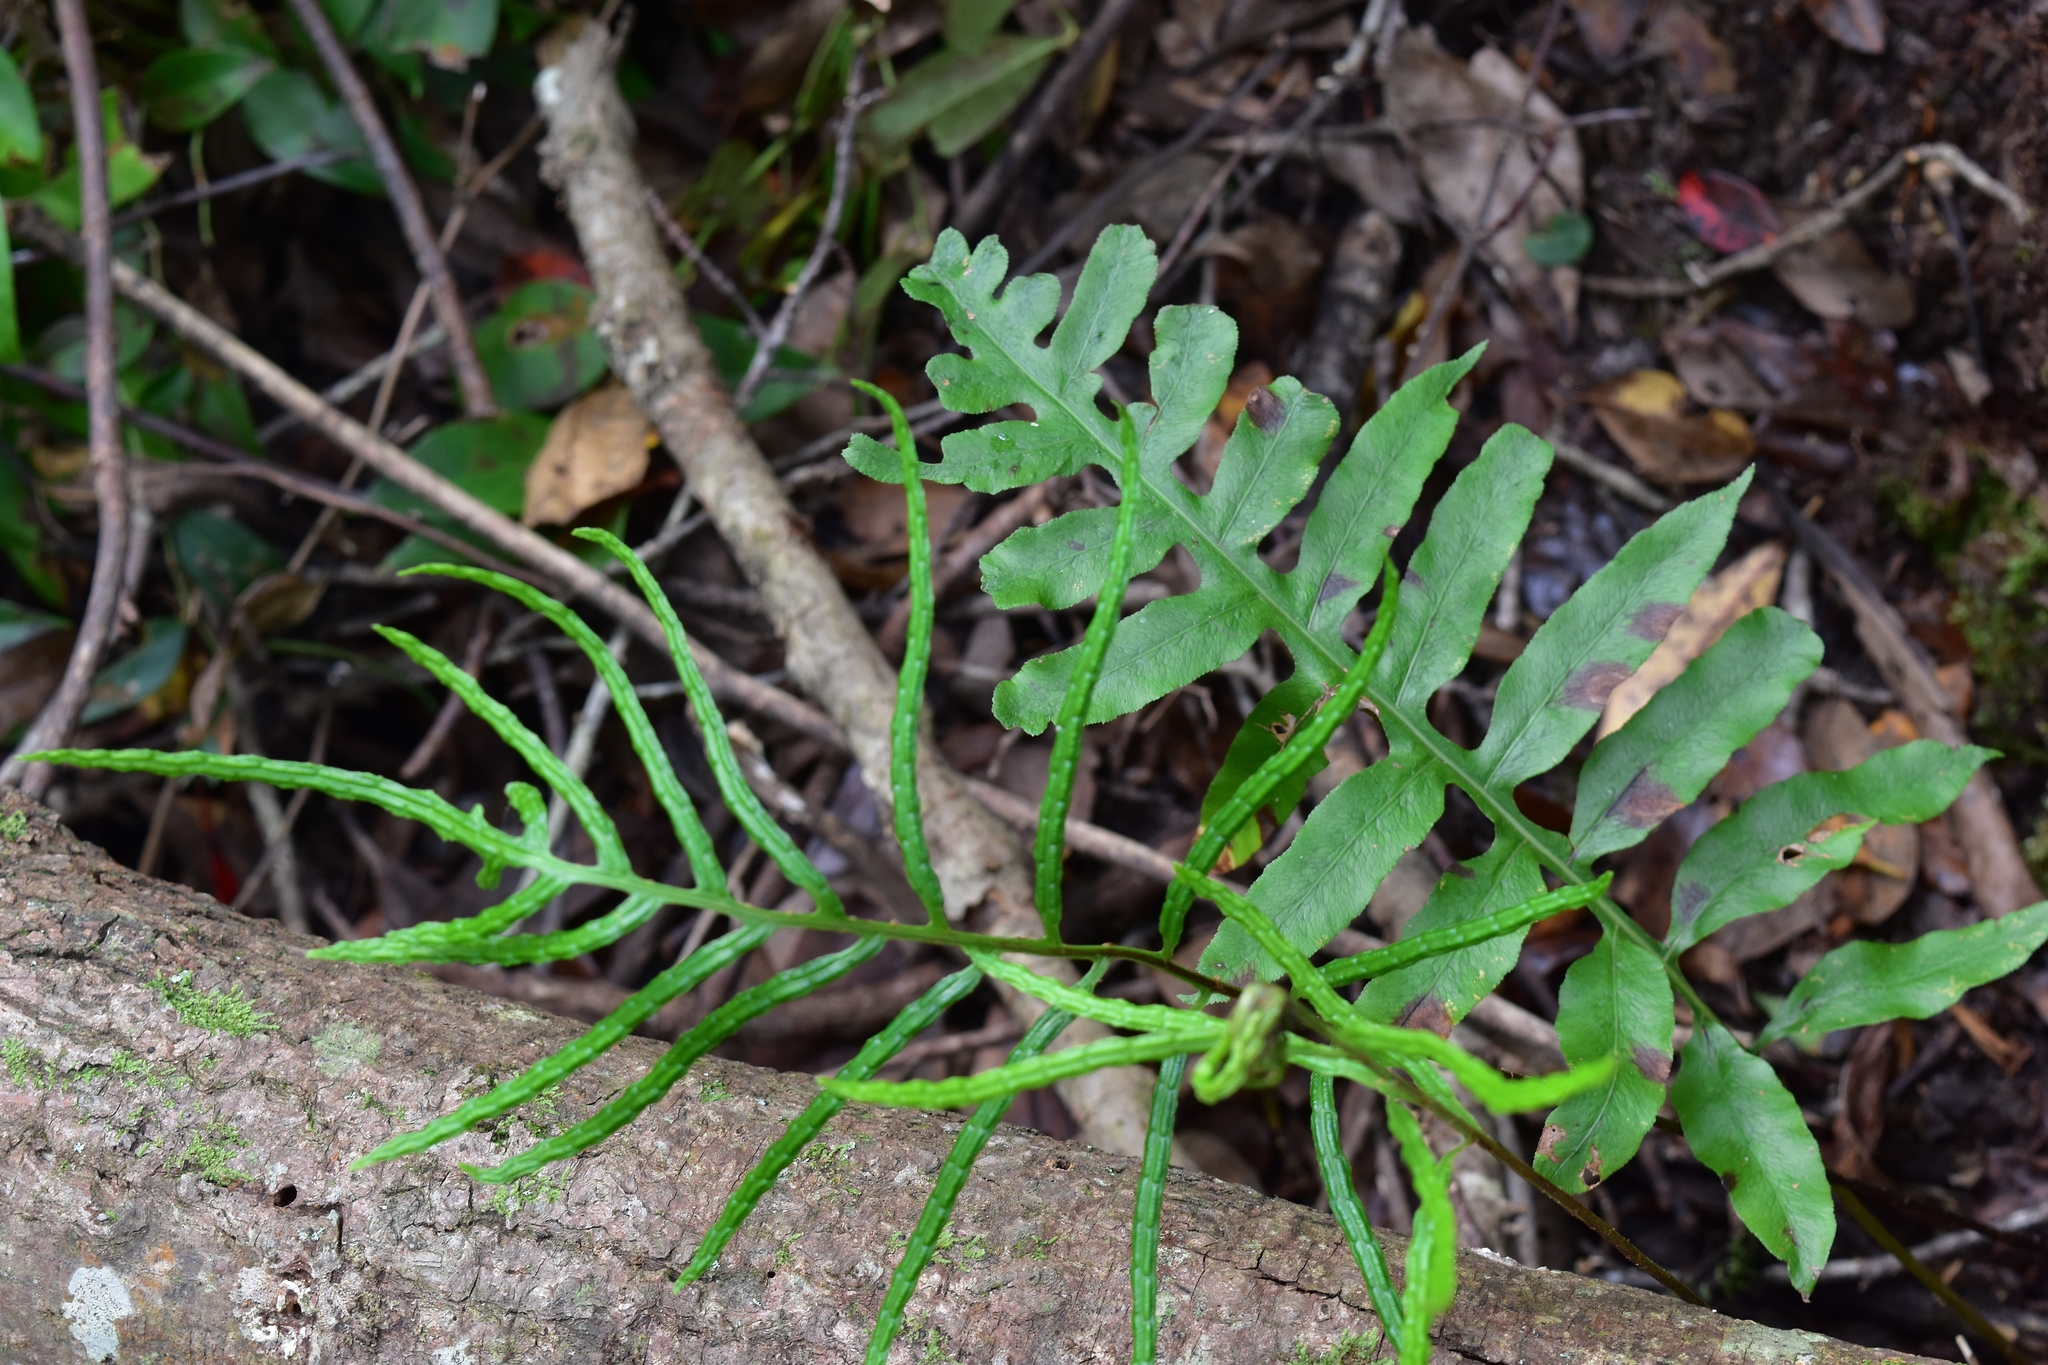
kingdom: Plantae
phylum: Tracheophyta
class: Polypodiopsida
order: Polypodiales
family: Blechnaceae
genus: Lorinseria
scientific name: Lorinseria areolata
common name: Dwarf chain fern
